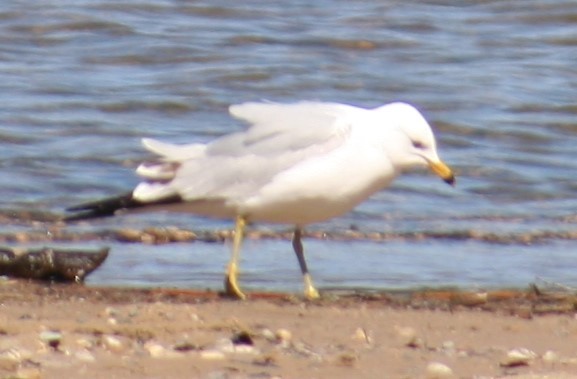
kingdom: Animalia
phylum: Chordata
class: Aves
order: Charadriiformes
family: Laridae
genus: Larus
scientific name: Larus delawarensis
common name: Ring-billed gull
